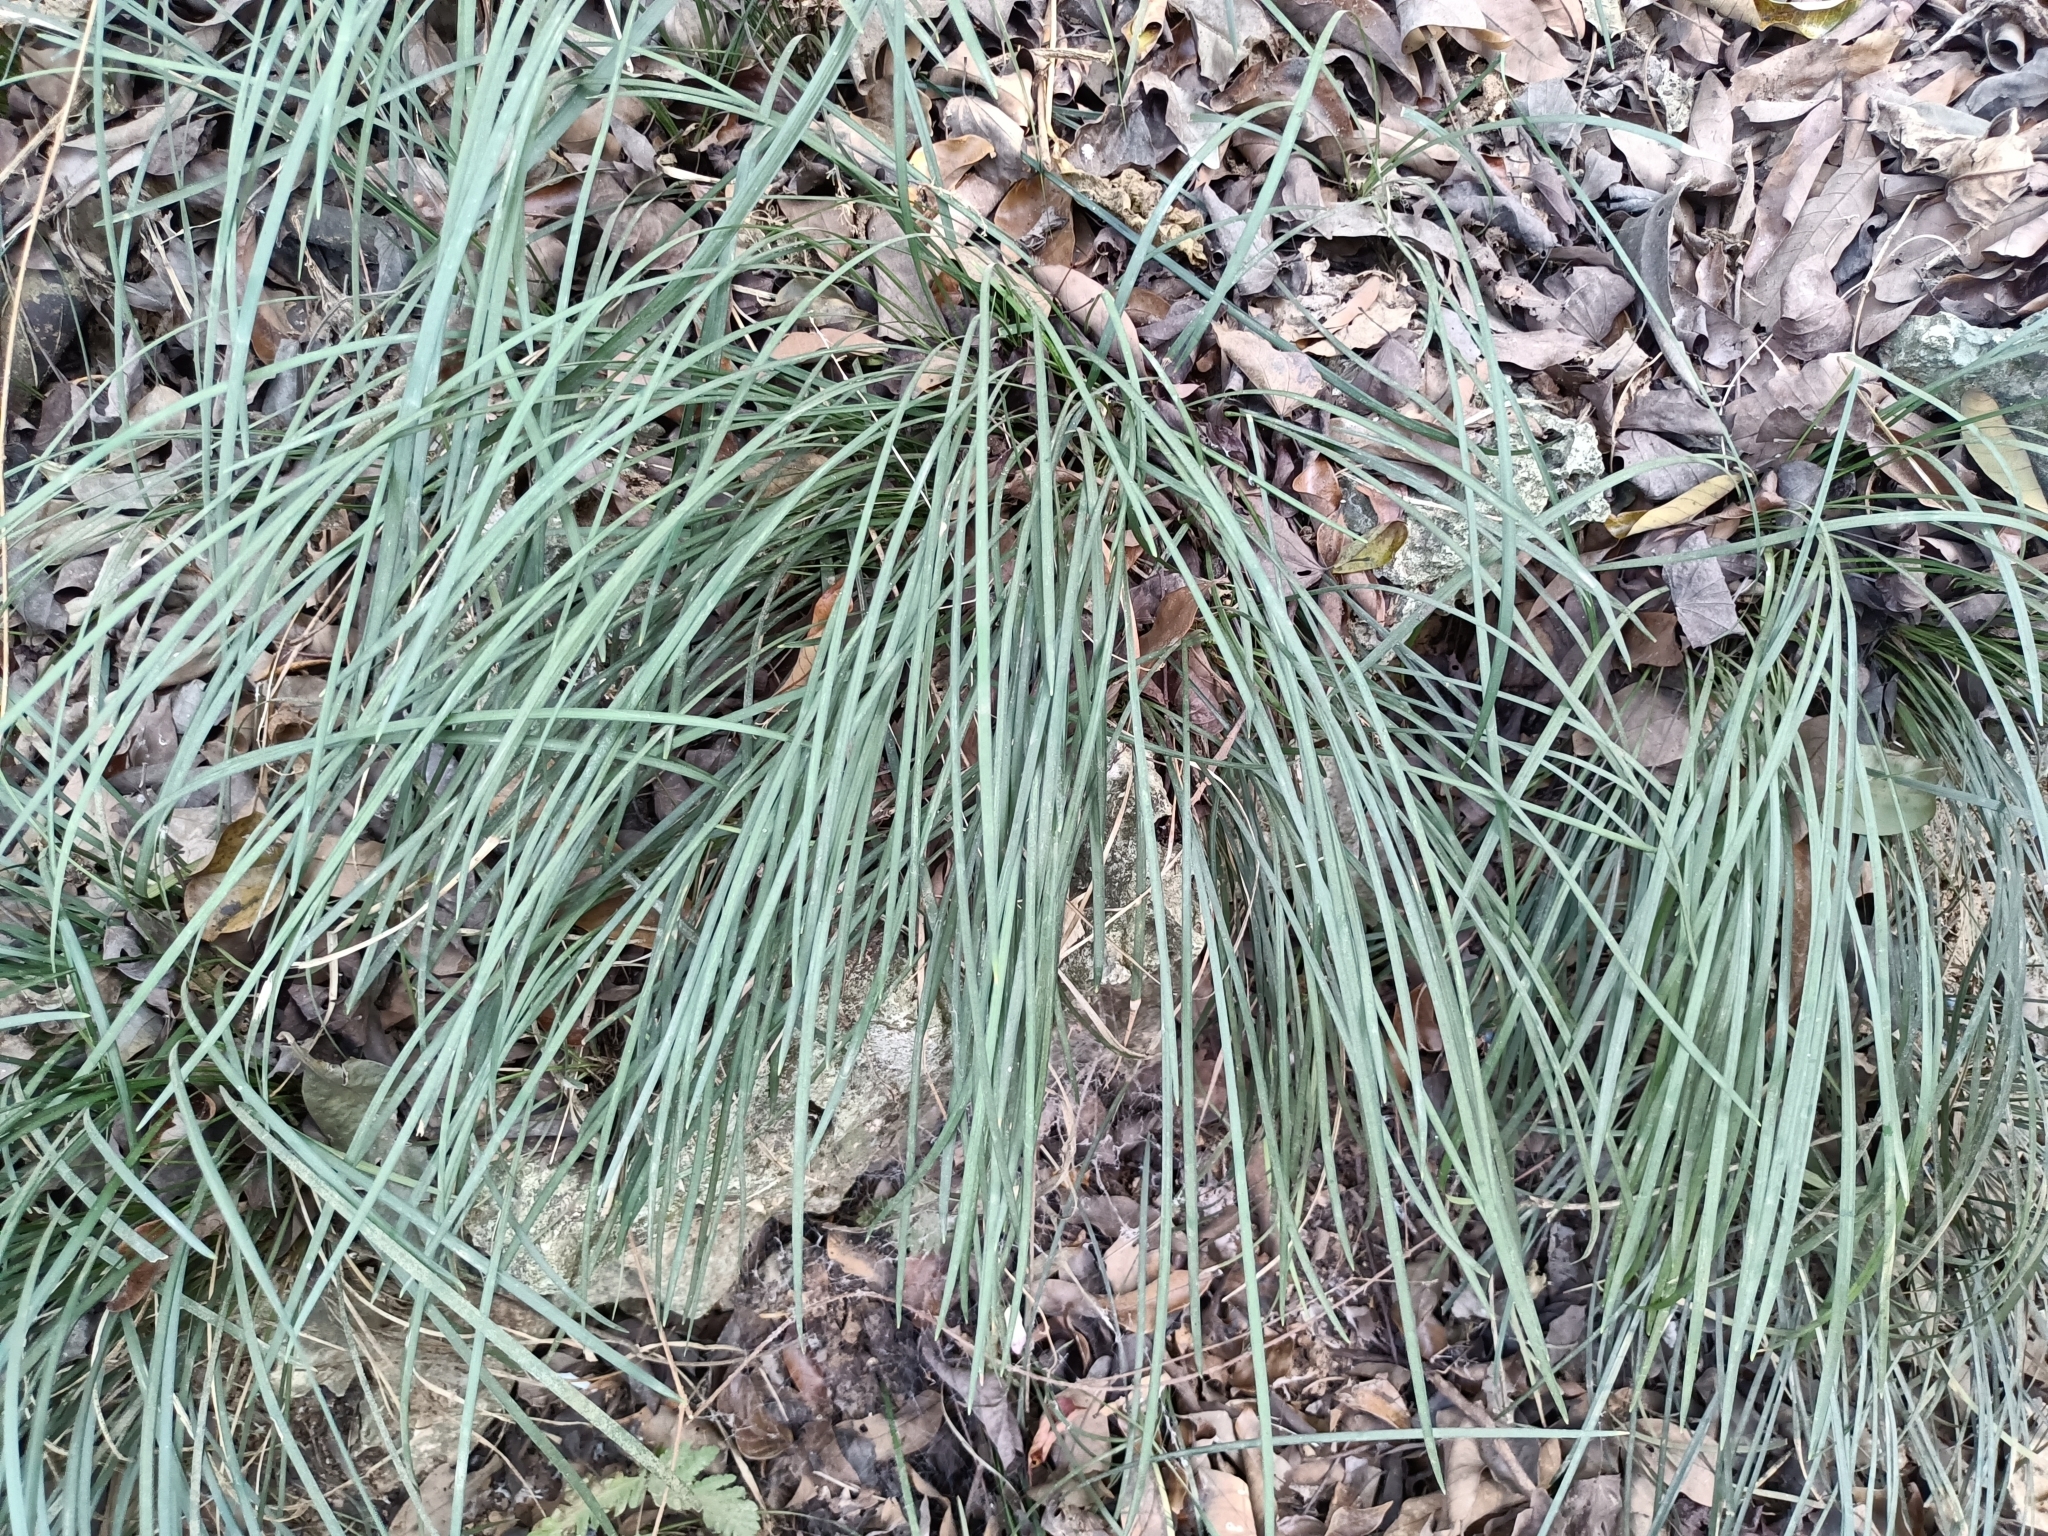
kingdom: Plantae
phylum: Tracheophyta
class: Liliopsida
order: Asparagales
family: Asparagaceae
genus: Liriope
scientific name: Liriope graminifolia
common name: Lilyturf
